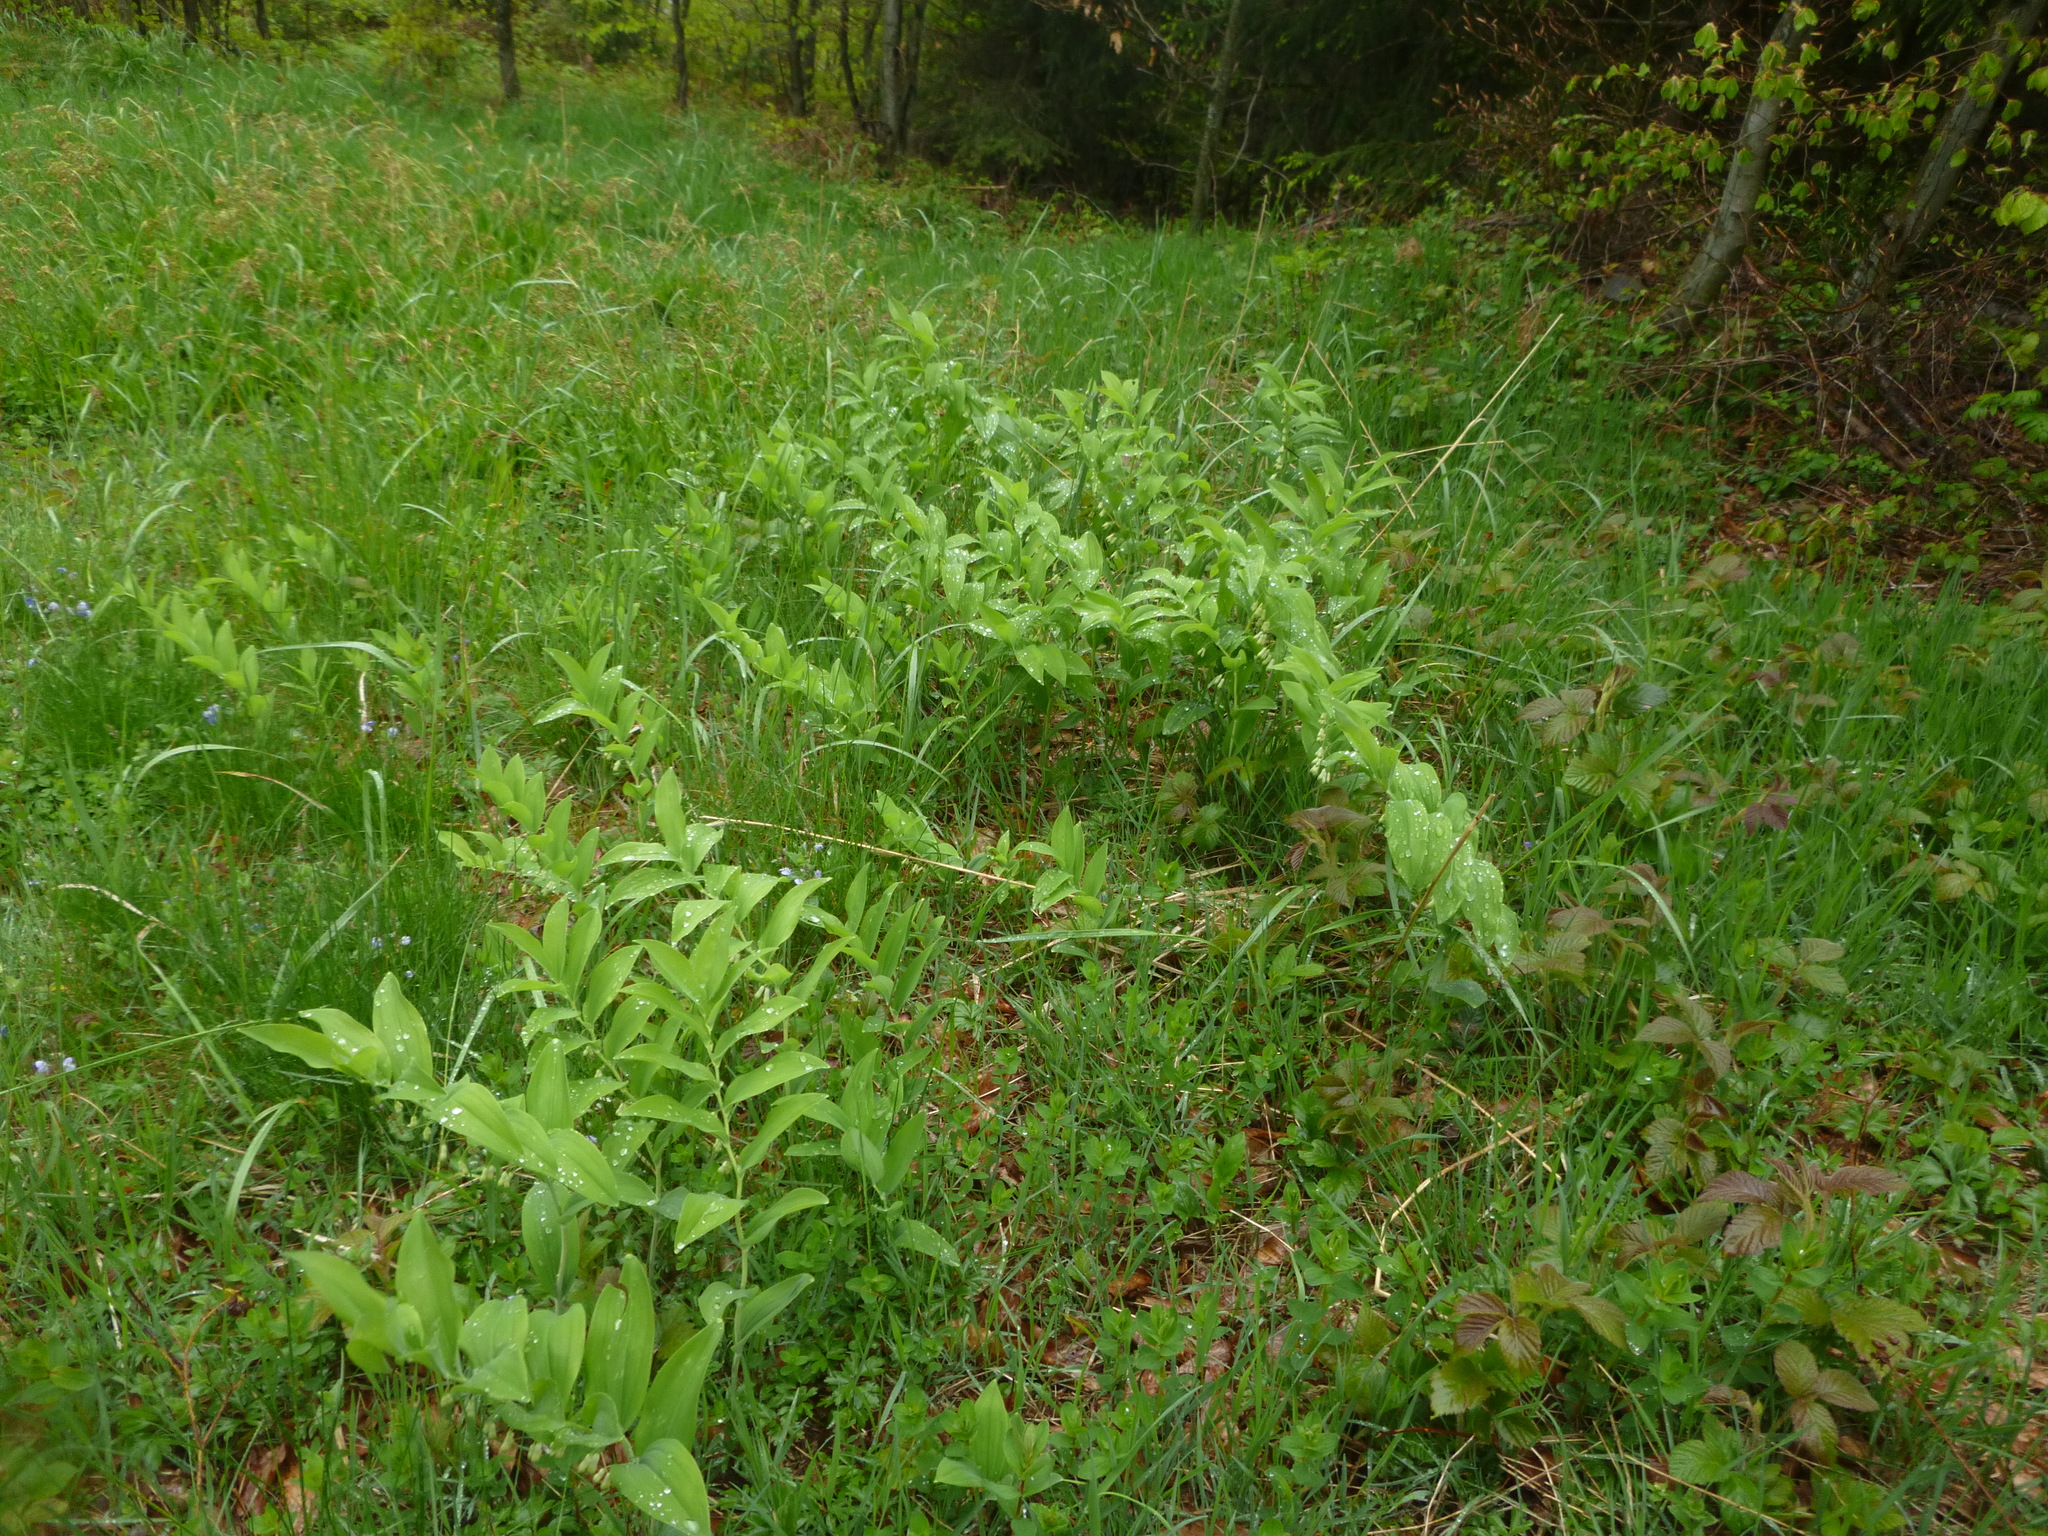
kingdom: Plantae
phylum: Tracheophyta
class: Liliopsida
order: Asparagales
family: Asparagaceae
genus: Polygonatum
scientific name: Polygonatum multiflorum
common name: Solomon's-seal
